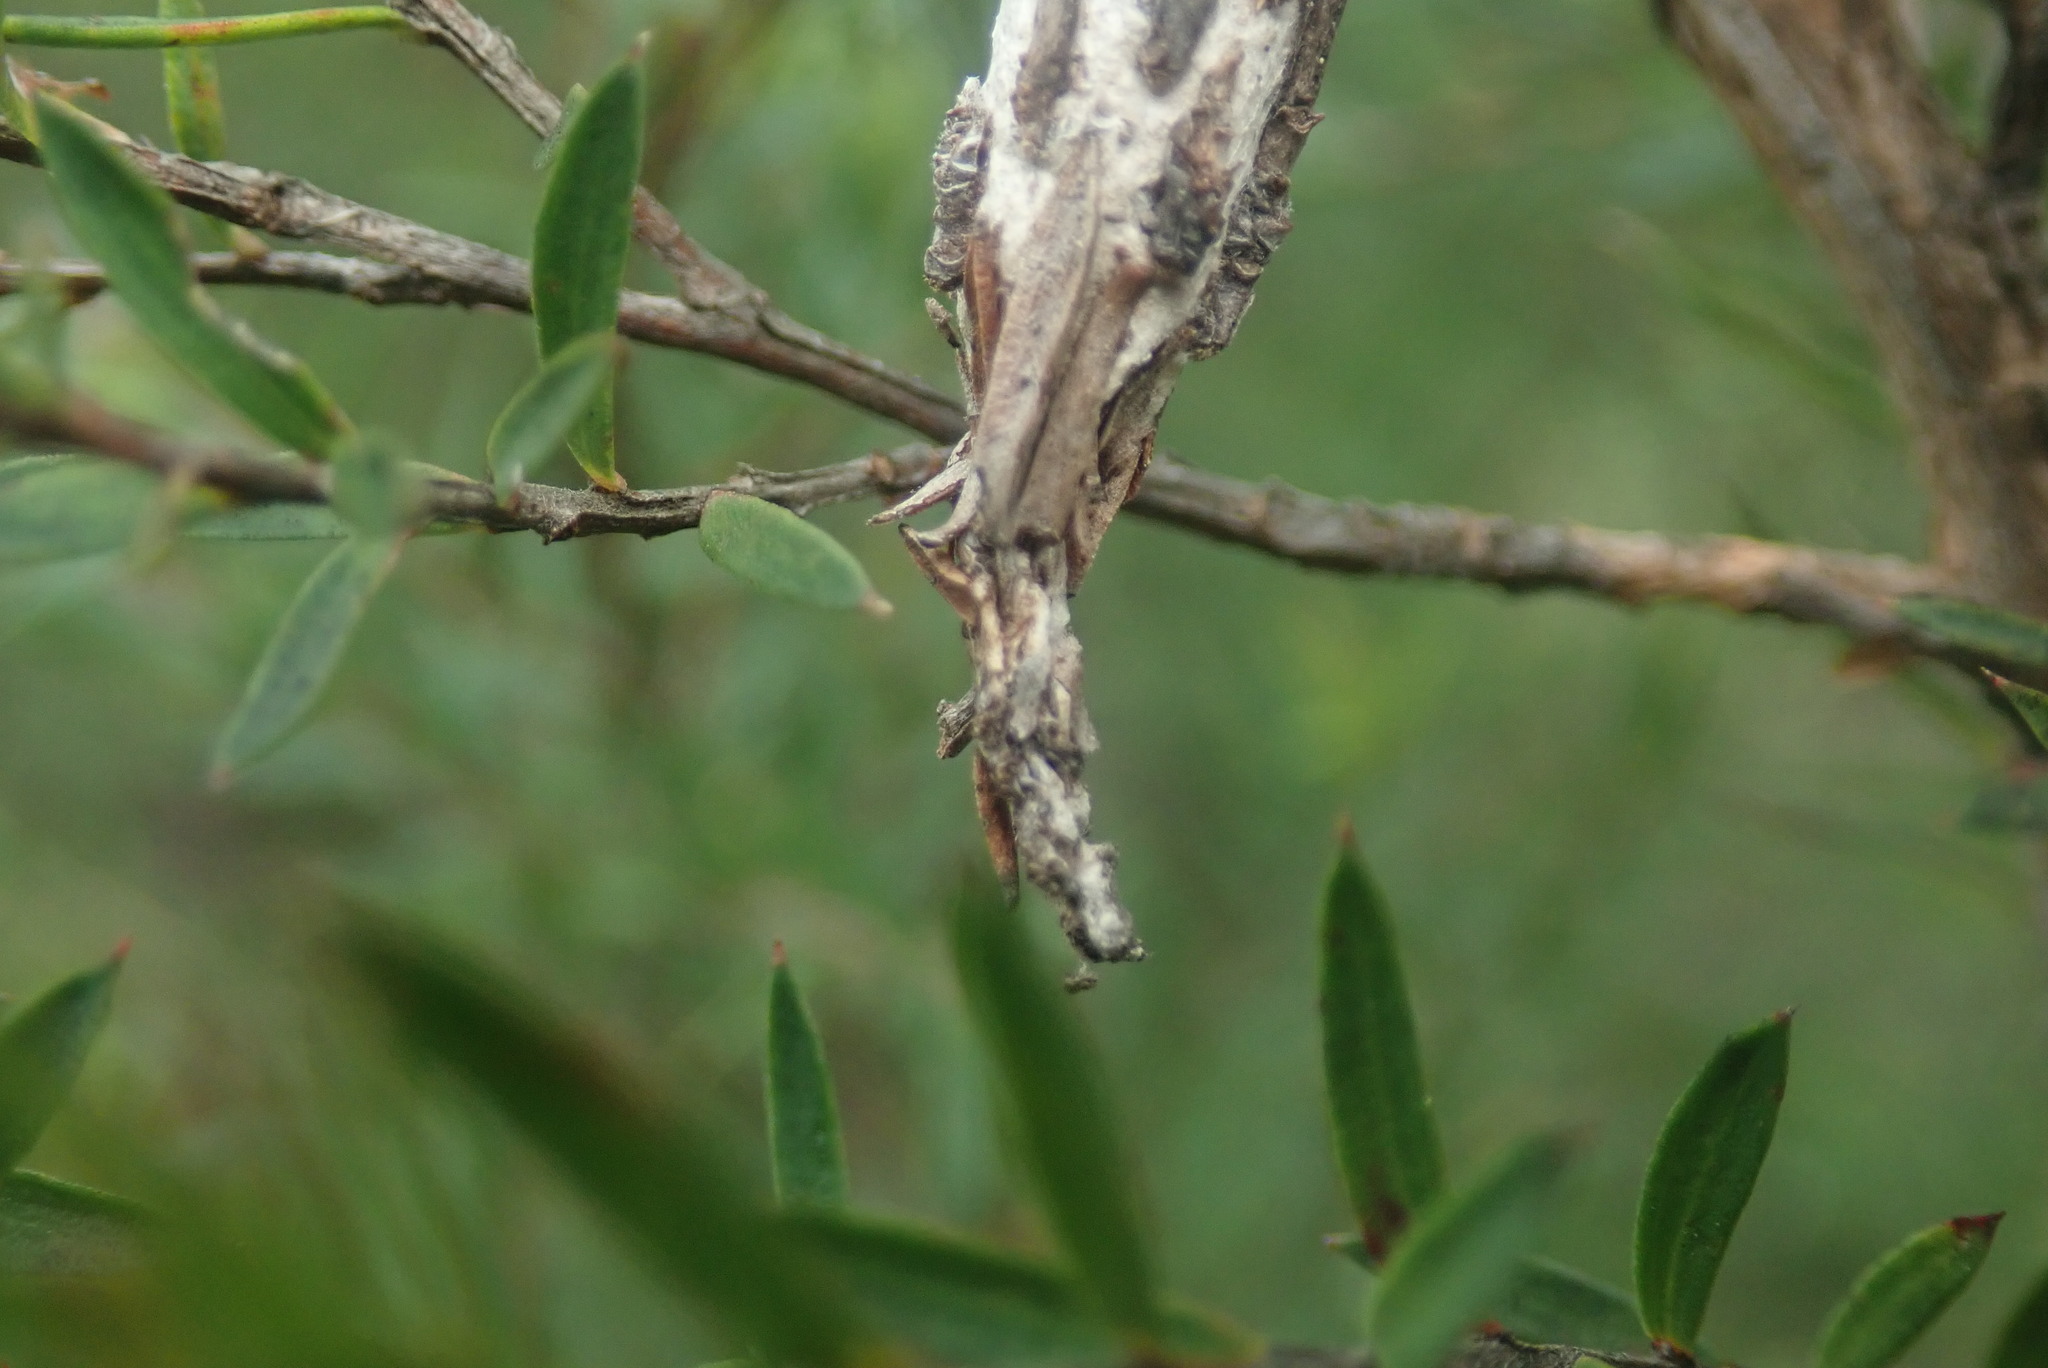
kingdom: Animalia
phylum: Arthropoda
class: Insecta
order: Lepidoptera
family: Psychidae
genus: Liothula
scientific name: Liothula omnivora
